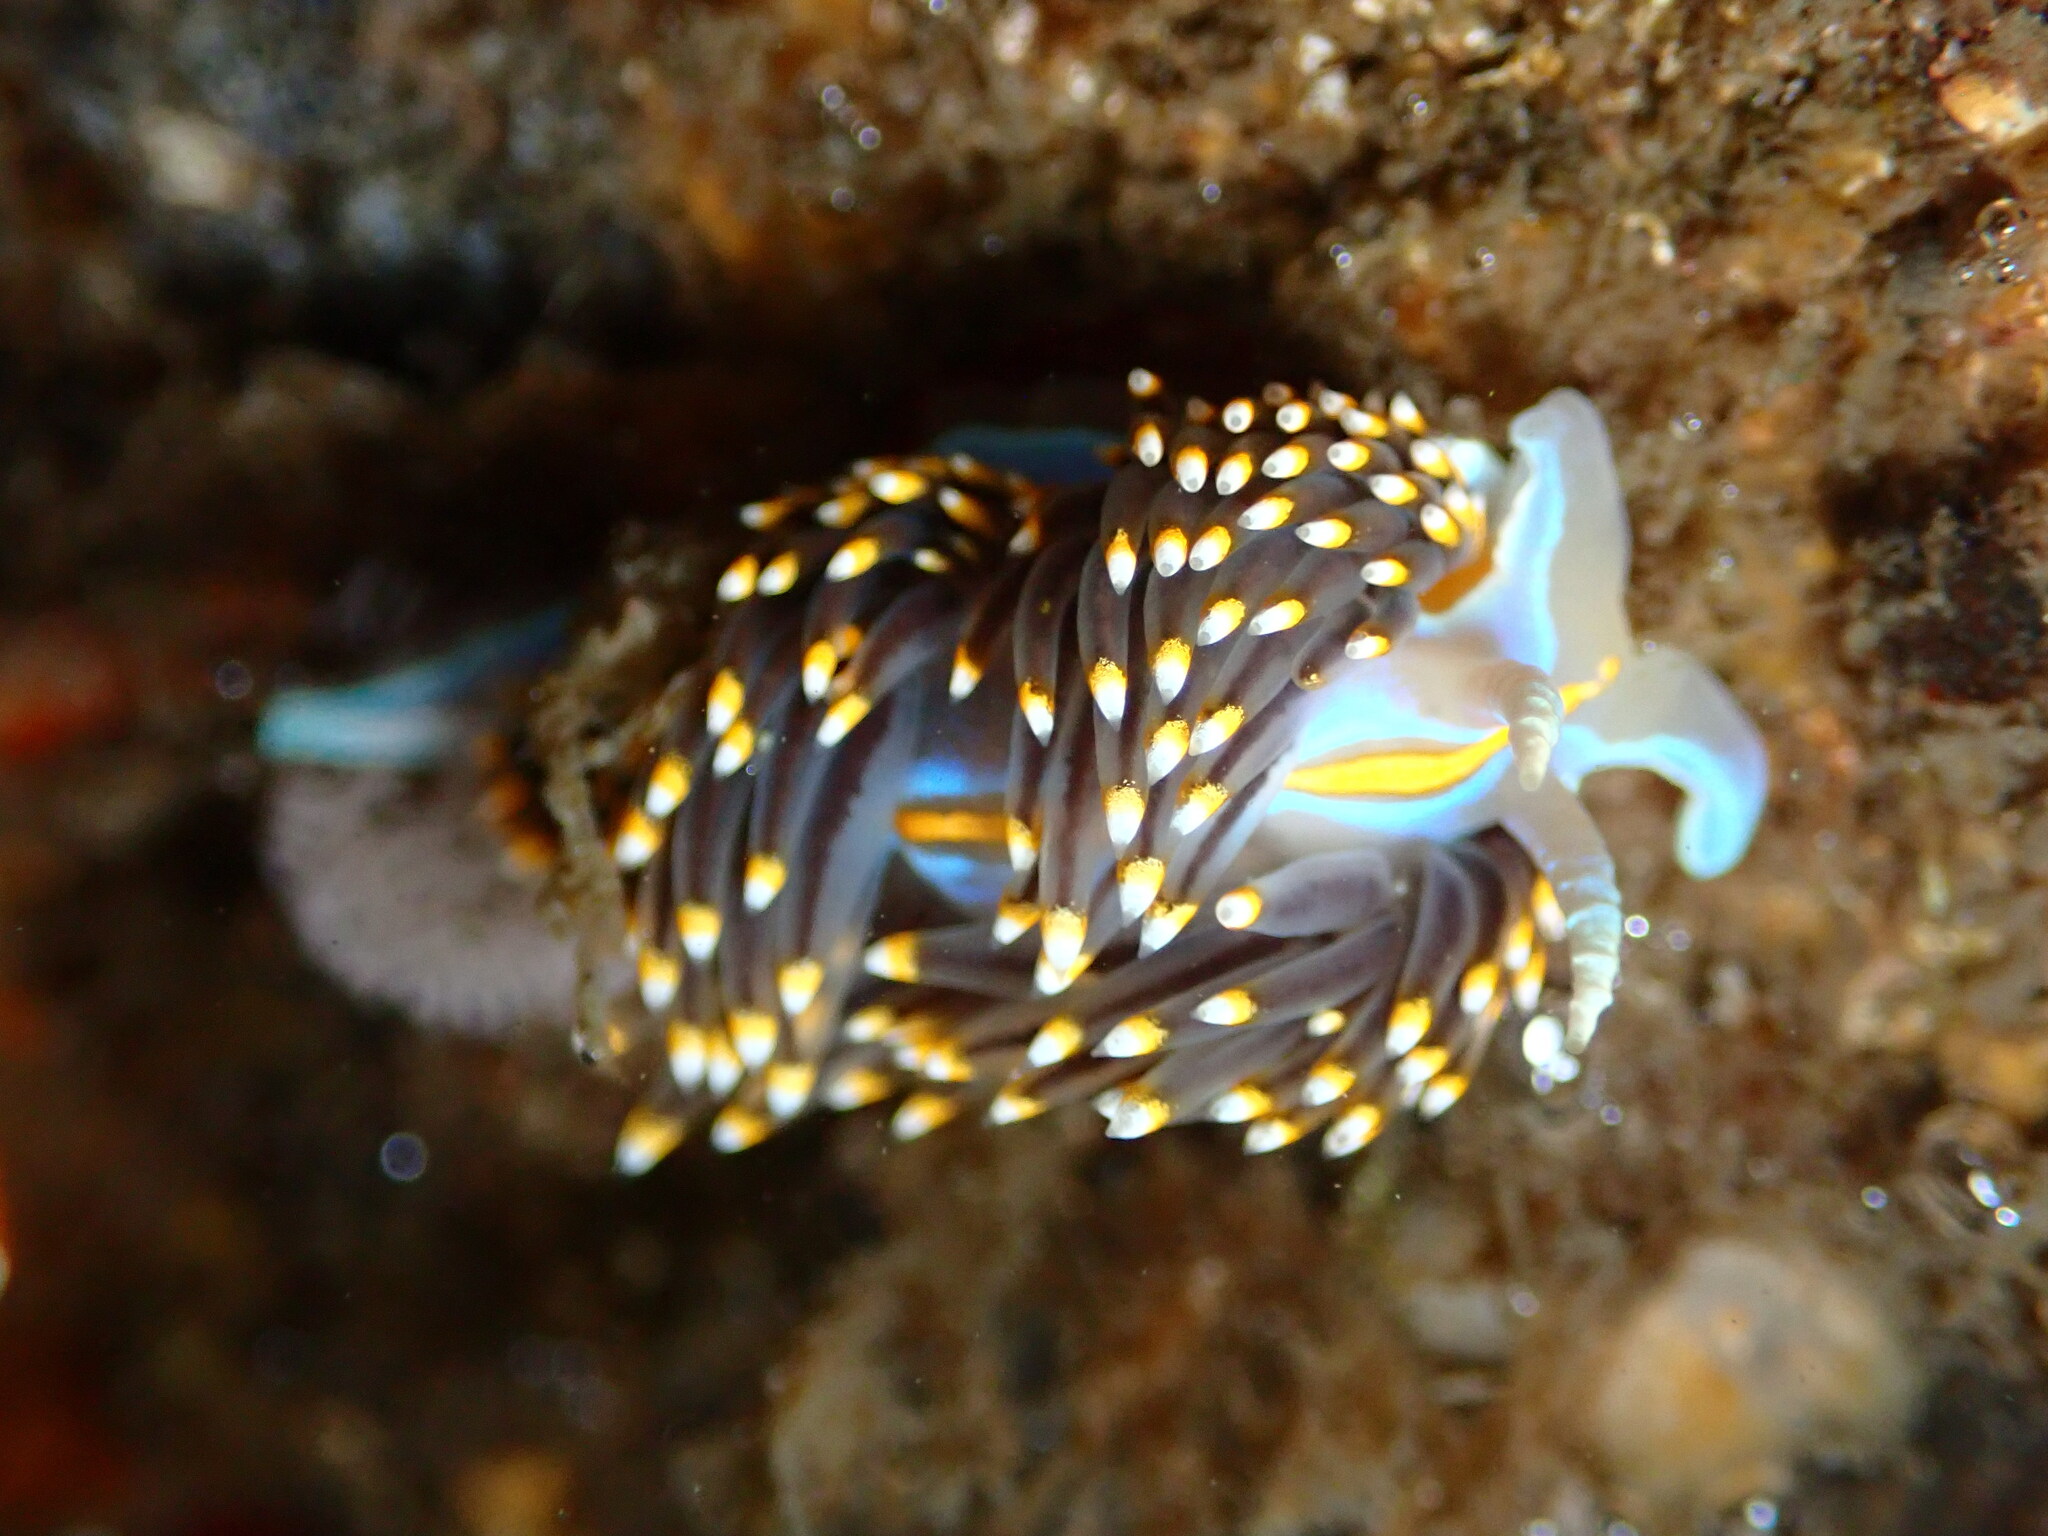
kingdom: Animalia
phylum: Mollusca
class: Gastropoda
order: Nudibranchia
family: Myrrhinidae
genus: Hermissenda
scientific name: Hermissenda opalescens
